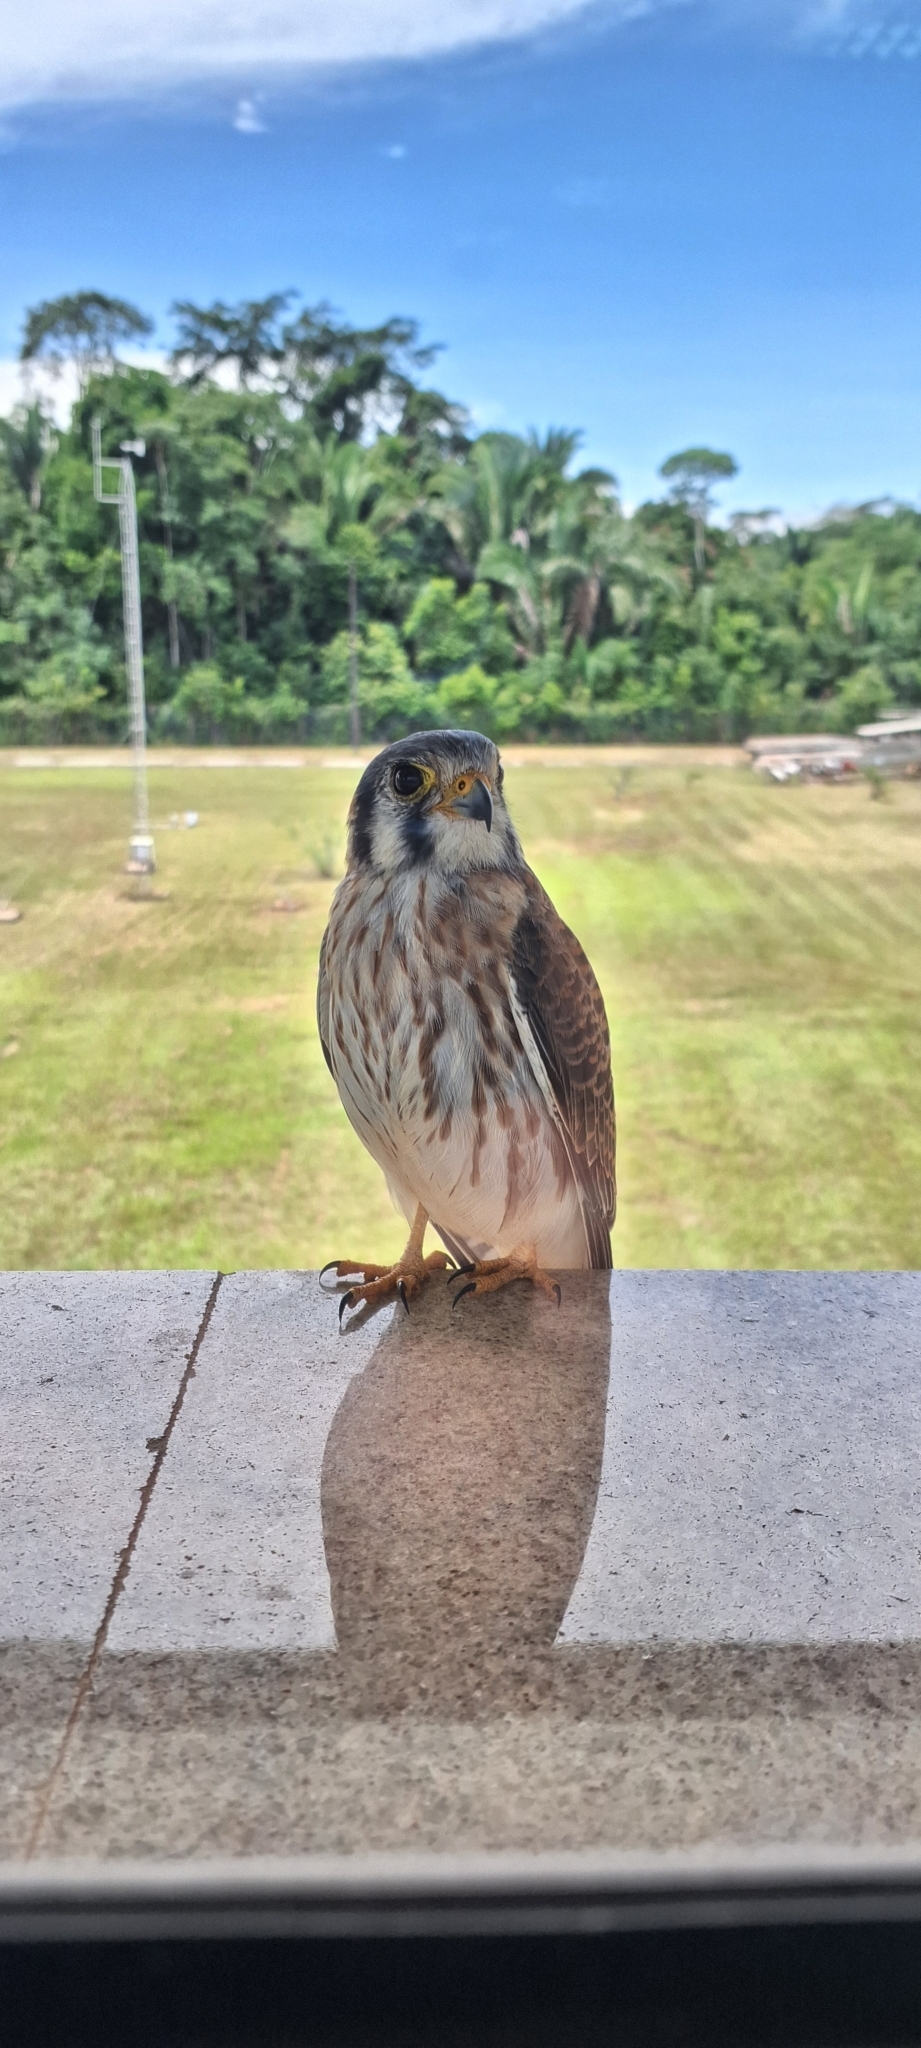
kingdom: Animalia
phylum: Chordata
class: Aves
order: Falconiformes
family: Falconidae
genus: Falco
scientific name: Falco sparverius
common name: American kestrel
